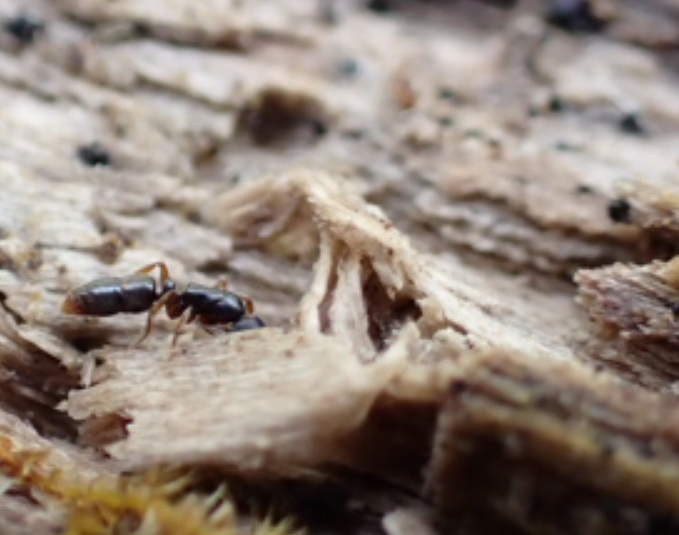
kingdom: Animalia
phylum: Arthropoda
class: Insecta
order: Hymenoptera
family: Formicidae
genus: Ponera
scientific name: Ponera pennsylvanica
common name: Pennsylvania ponera
